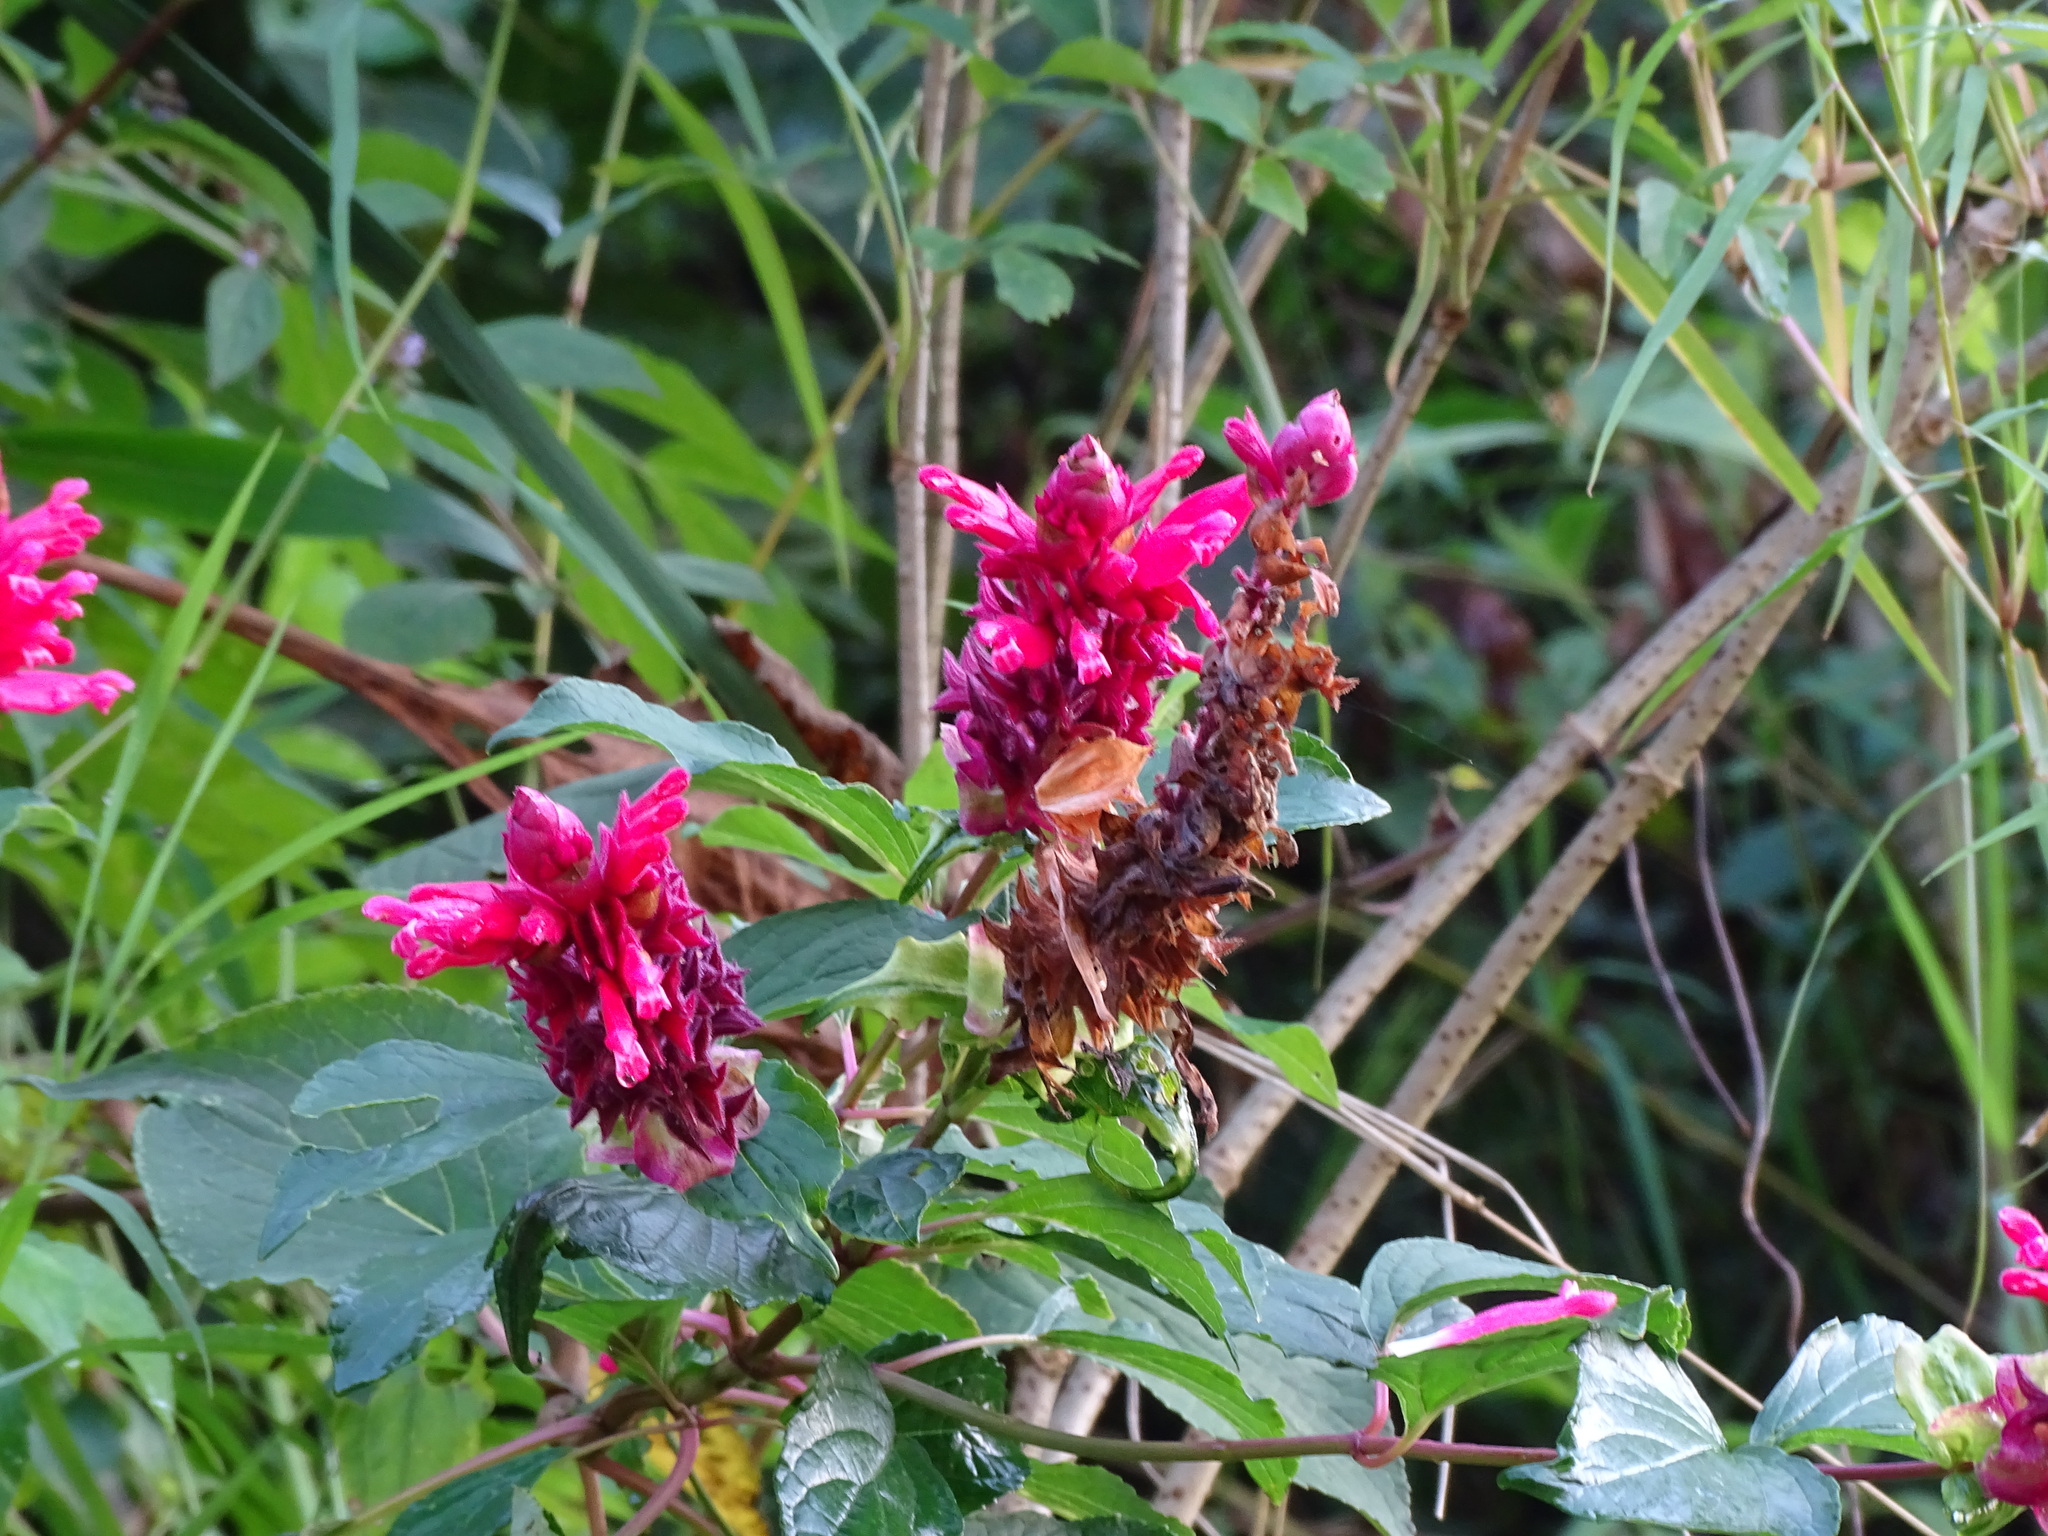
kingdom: Plantae
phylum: Tracheophyta
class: Magnoliopsida
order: Lamiales
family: Lamiaceae
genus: Salvia
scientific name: Salvia wagneriana
